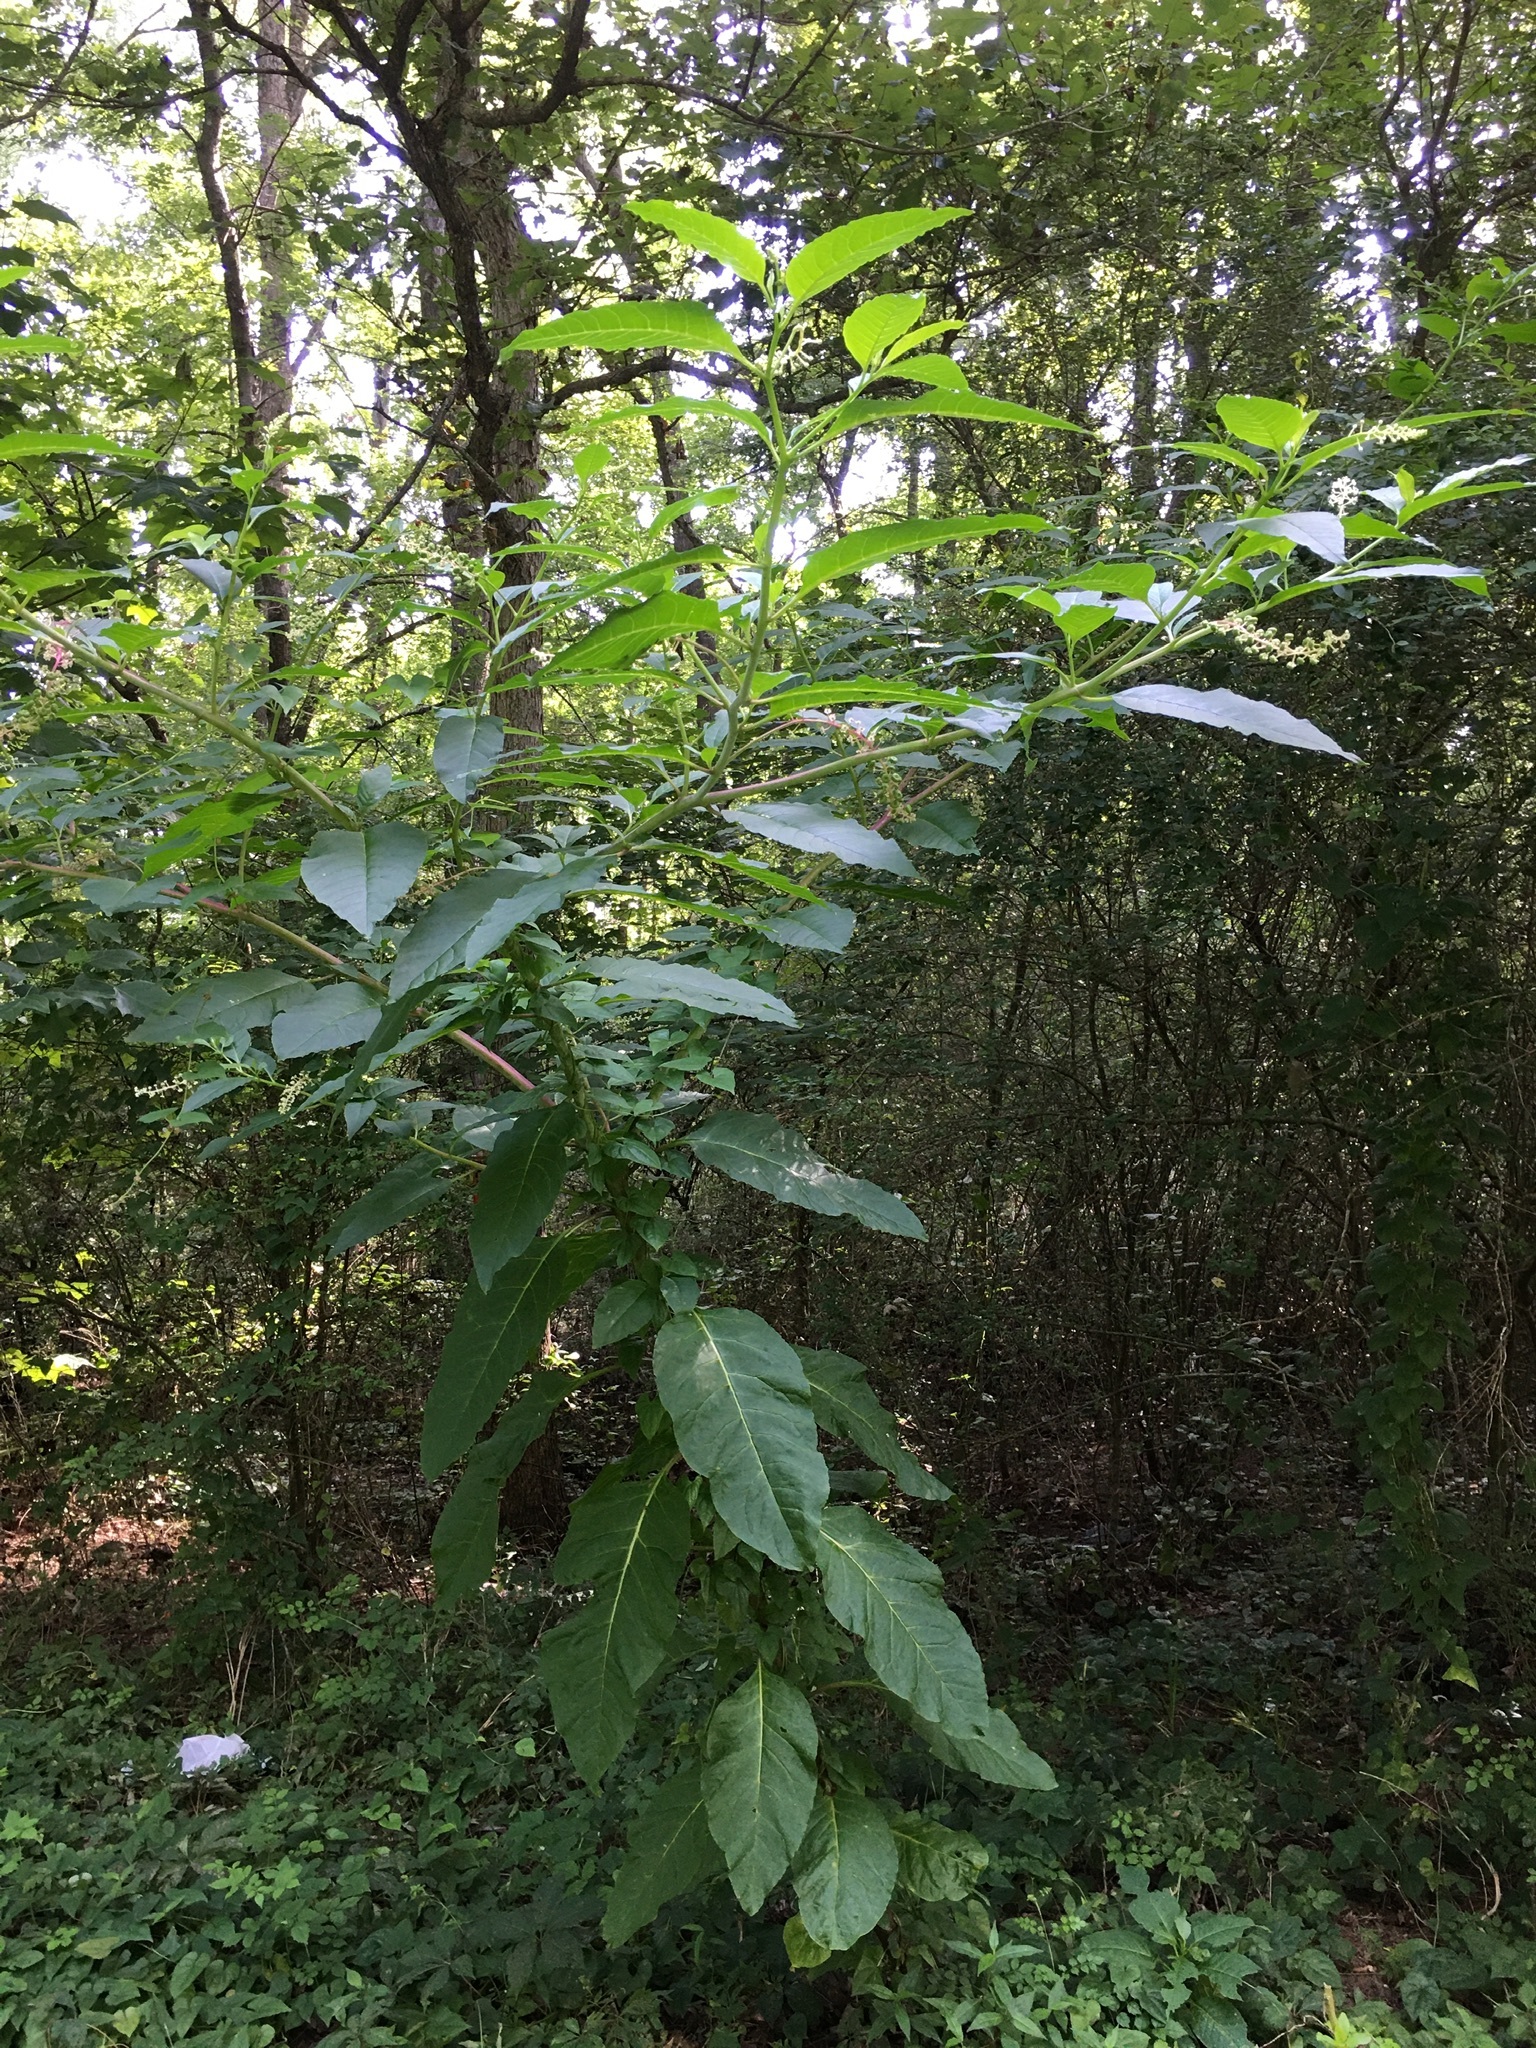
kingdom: Plantae
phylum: Tracheophyta
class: Magnoliopsida
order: Caryophyllales
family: Phytolaccaceae
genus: Phytolacca
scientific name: Phytolacca americana
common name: American pokeweed
